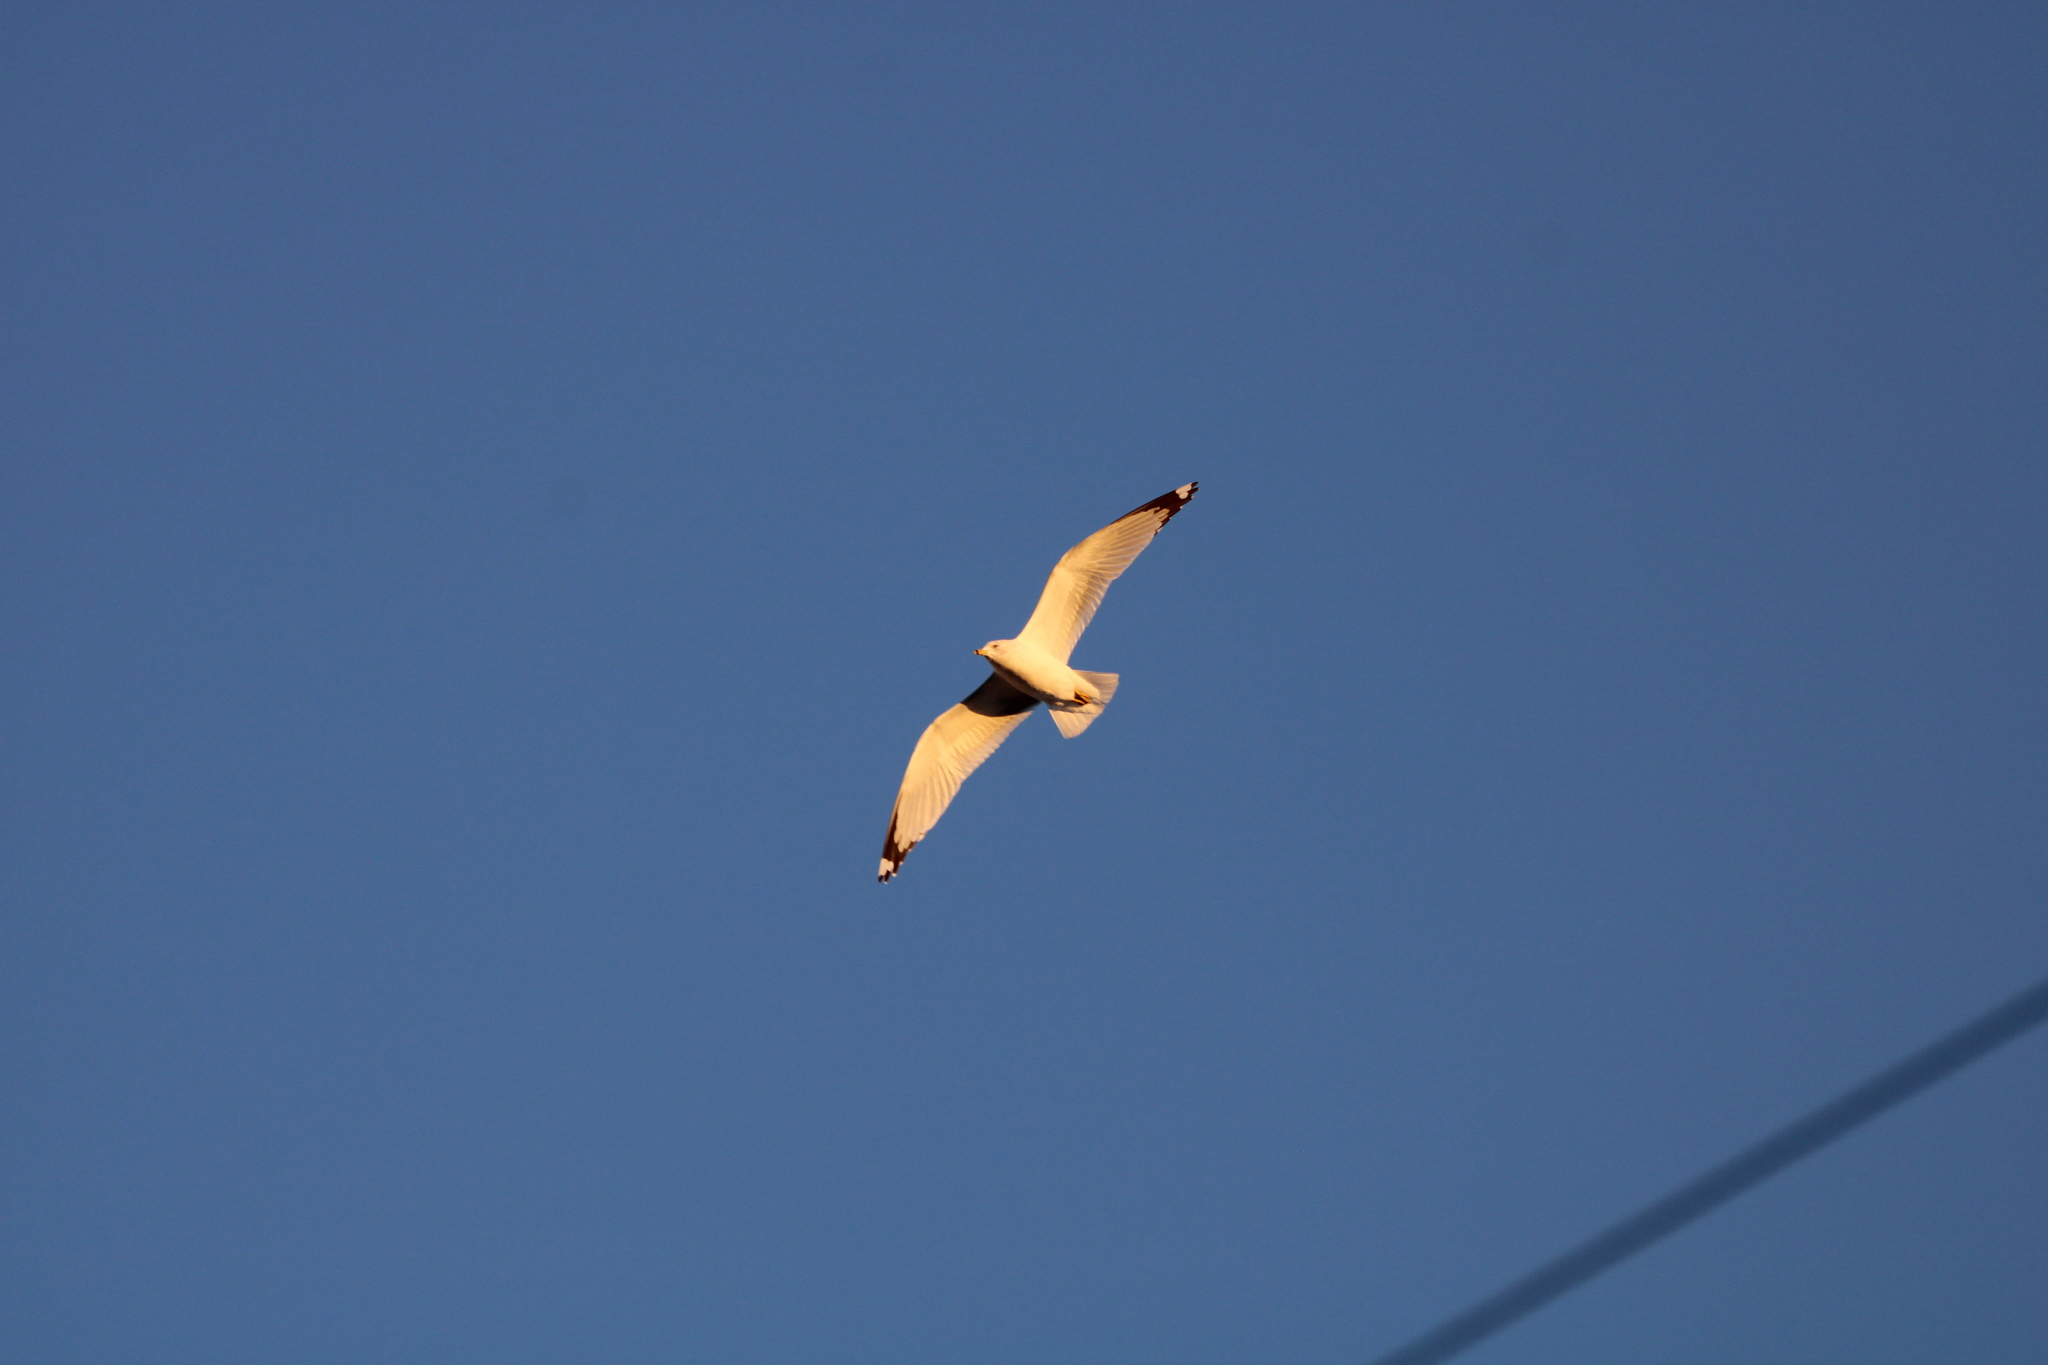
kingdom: Animalia
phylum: Chordata
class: Aves
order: Charadriiformes
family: Laridae
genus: Larus
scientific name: Larus delawarensis
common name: Ring-billed gull
